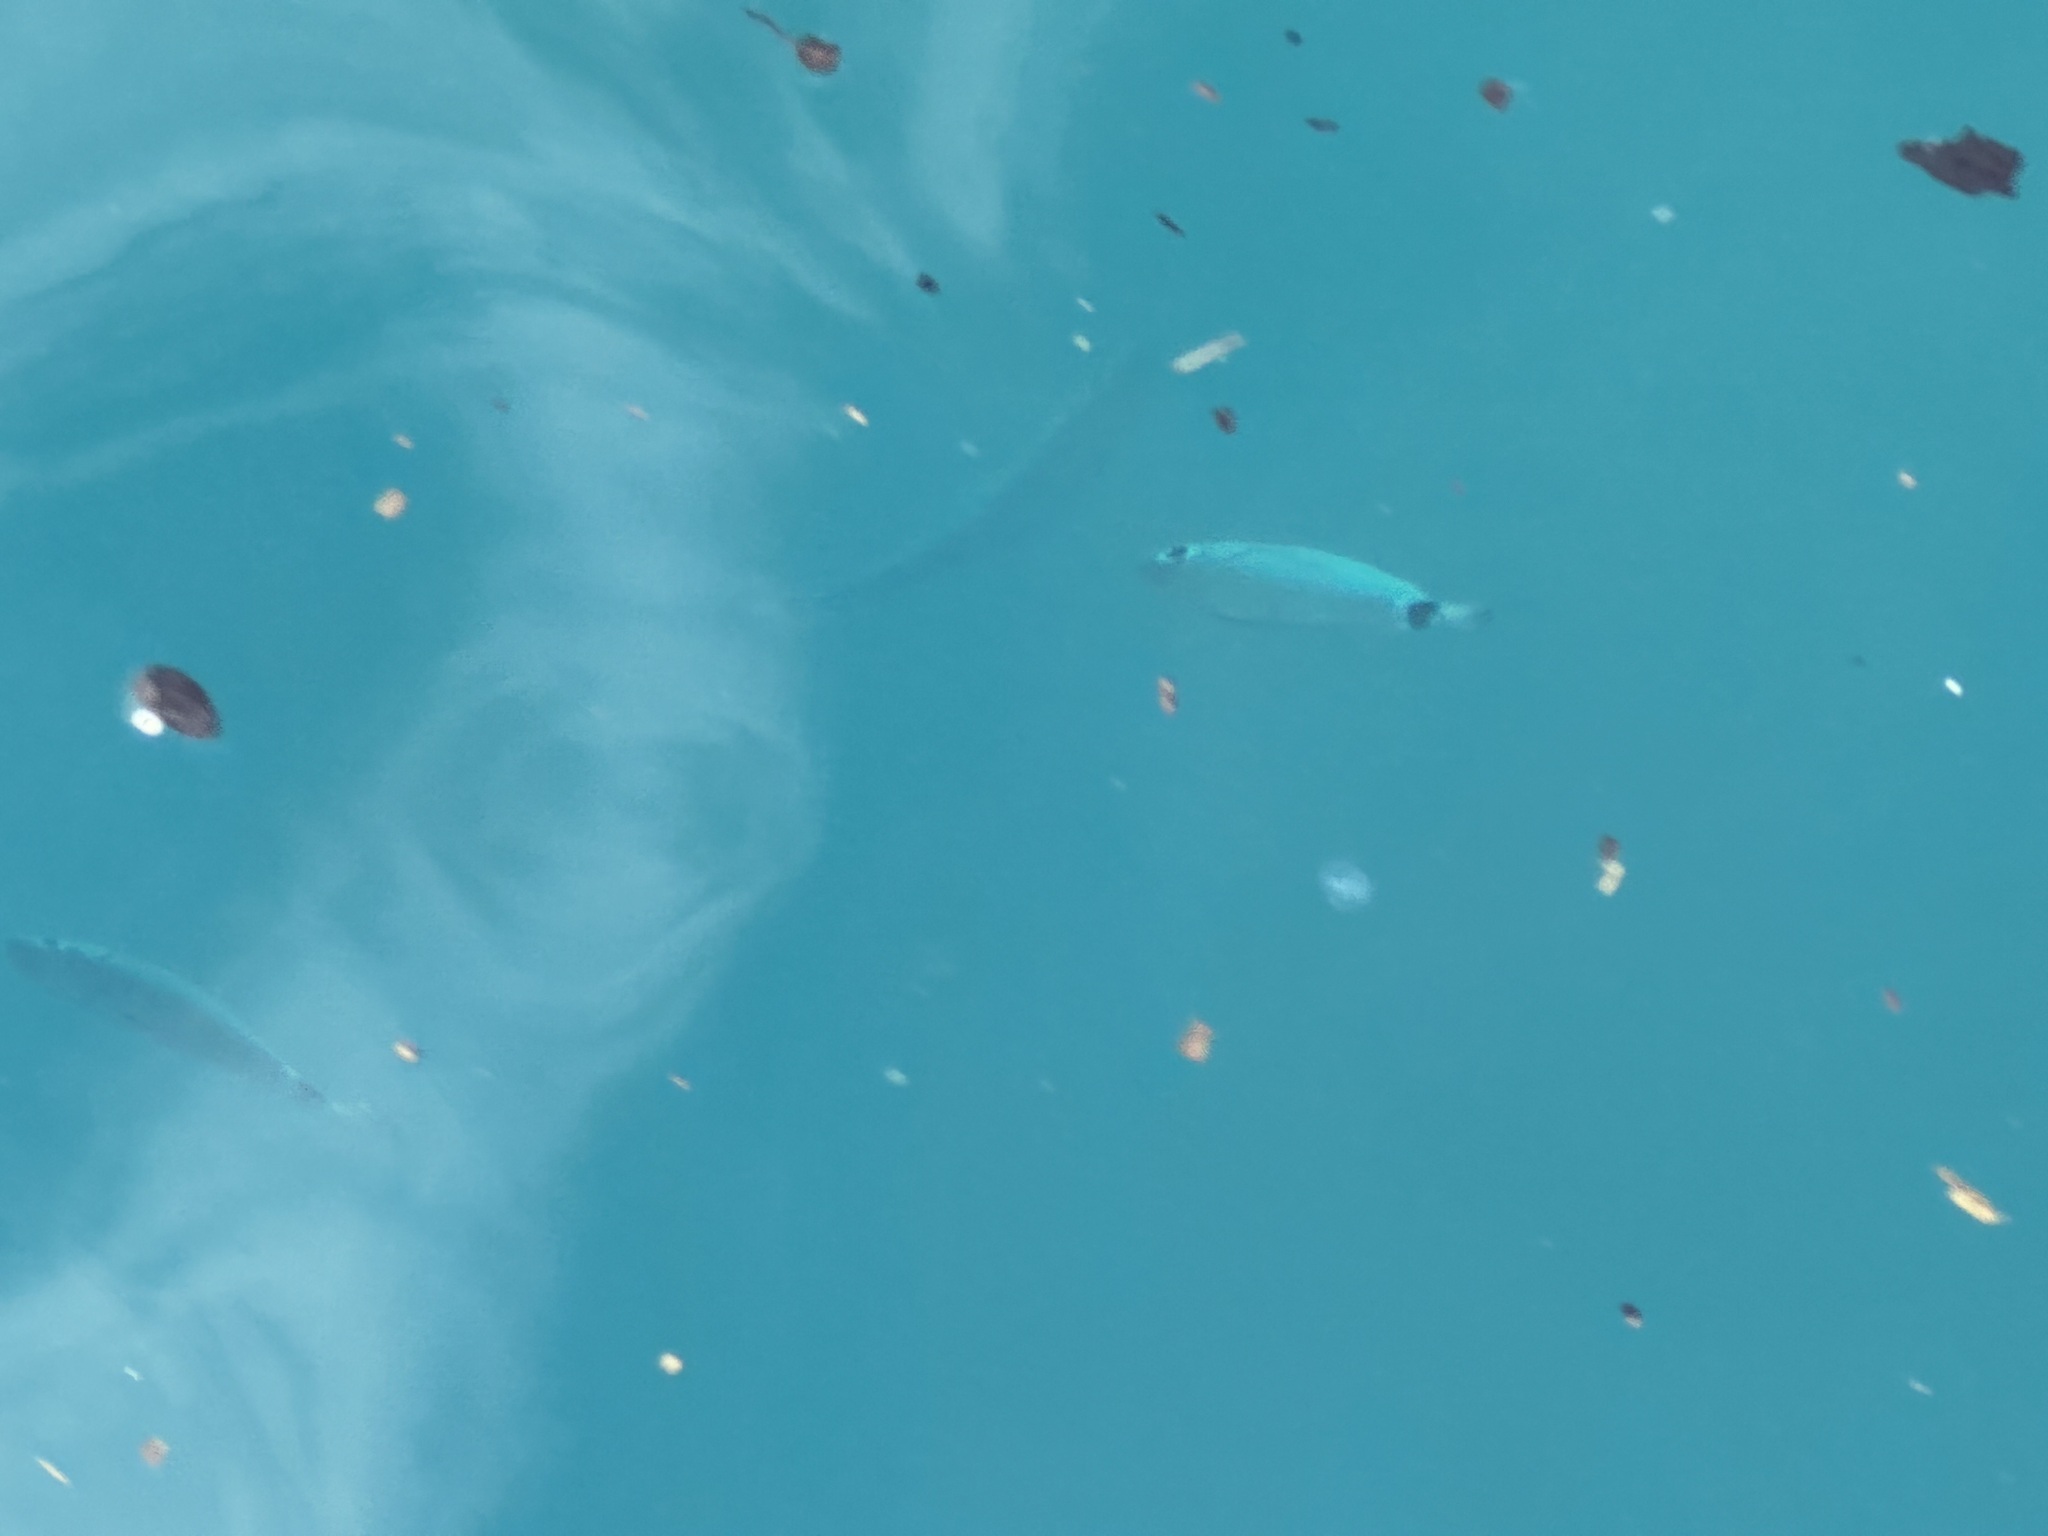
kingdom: Animalia
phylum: Chordata
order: Perciformes
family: Sparidae
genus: Oblada
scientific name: Oblada melanura
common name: Saddled seabream
